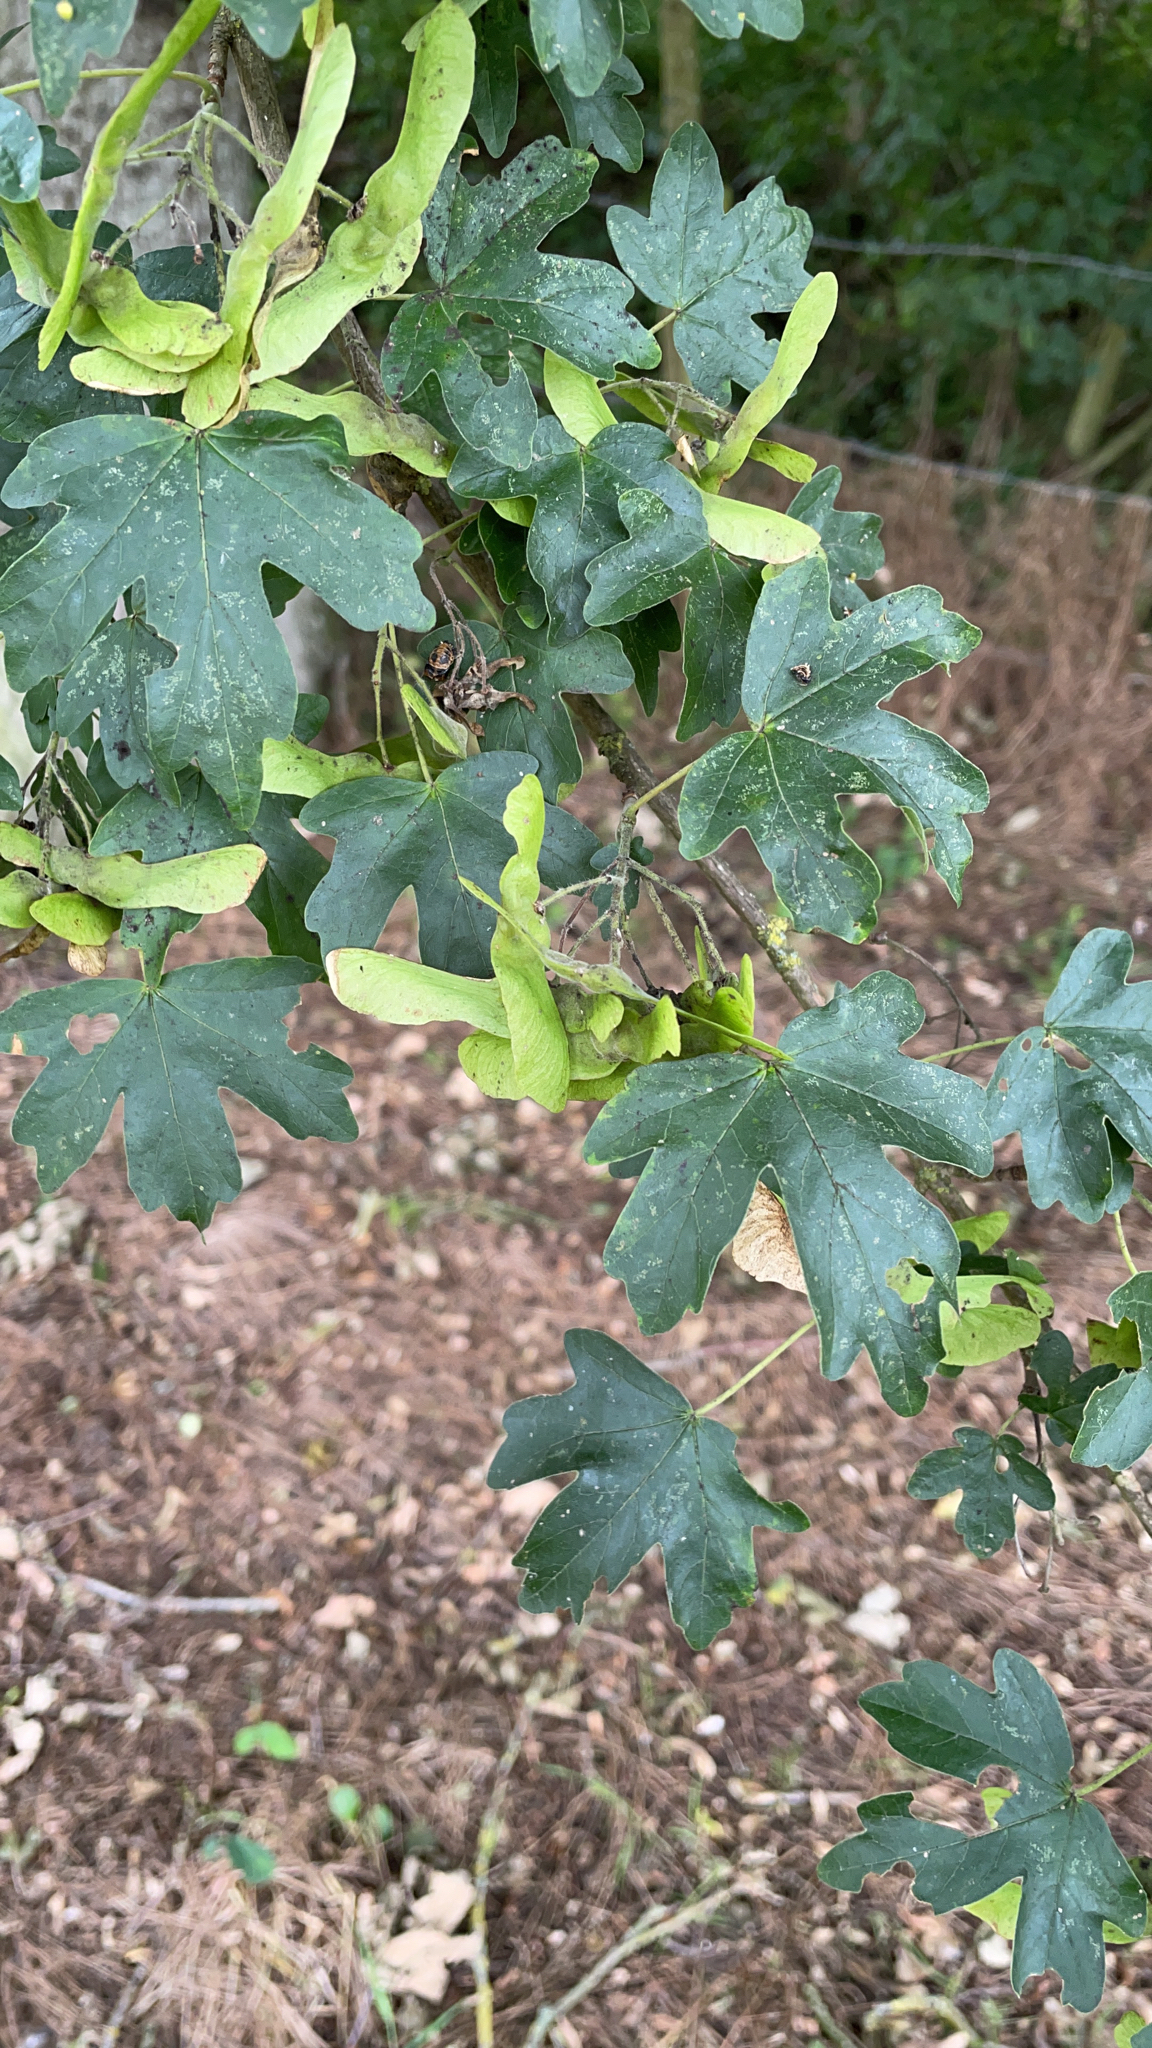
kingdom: Plantae
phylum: Tracheophyta
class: Magnoliopsida
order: Sapindales
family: Sapindaceae
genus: Acer
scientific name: Acer campestre
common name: Field maple
